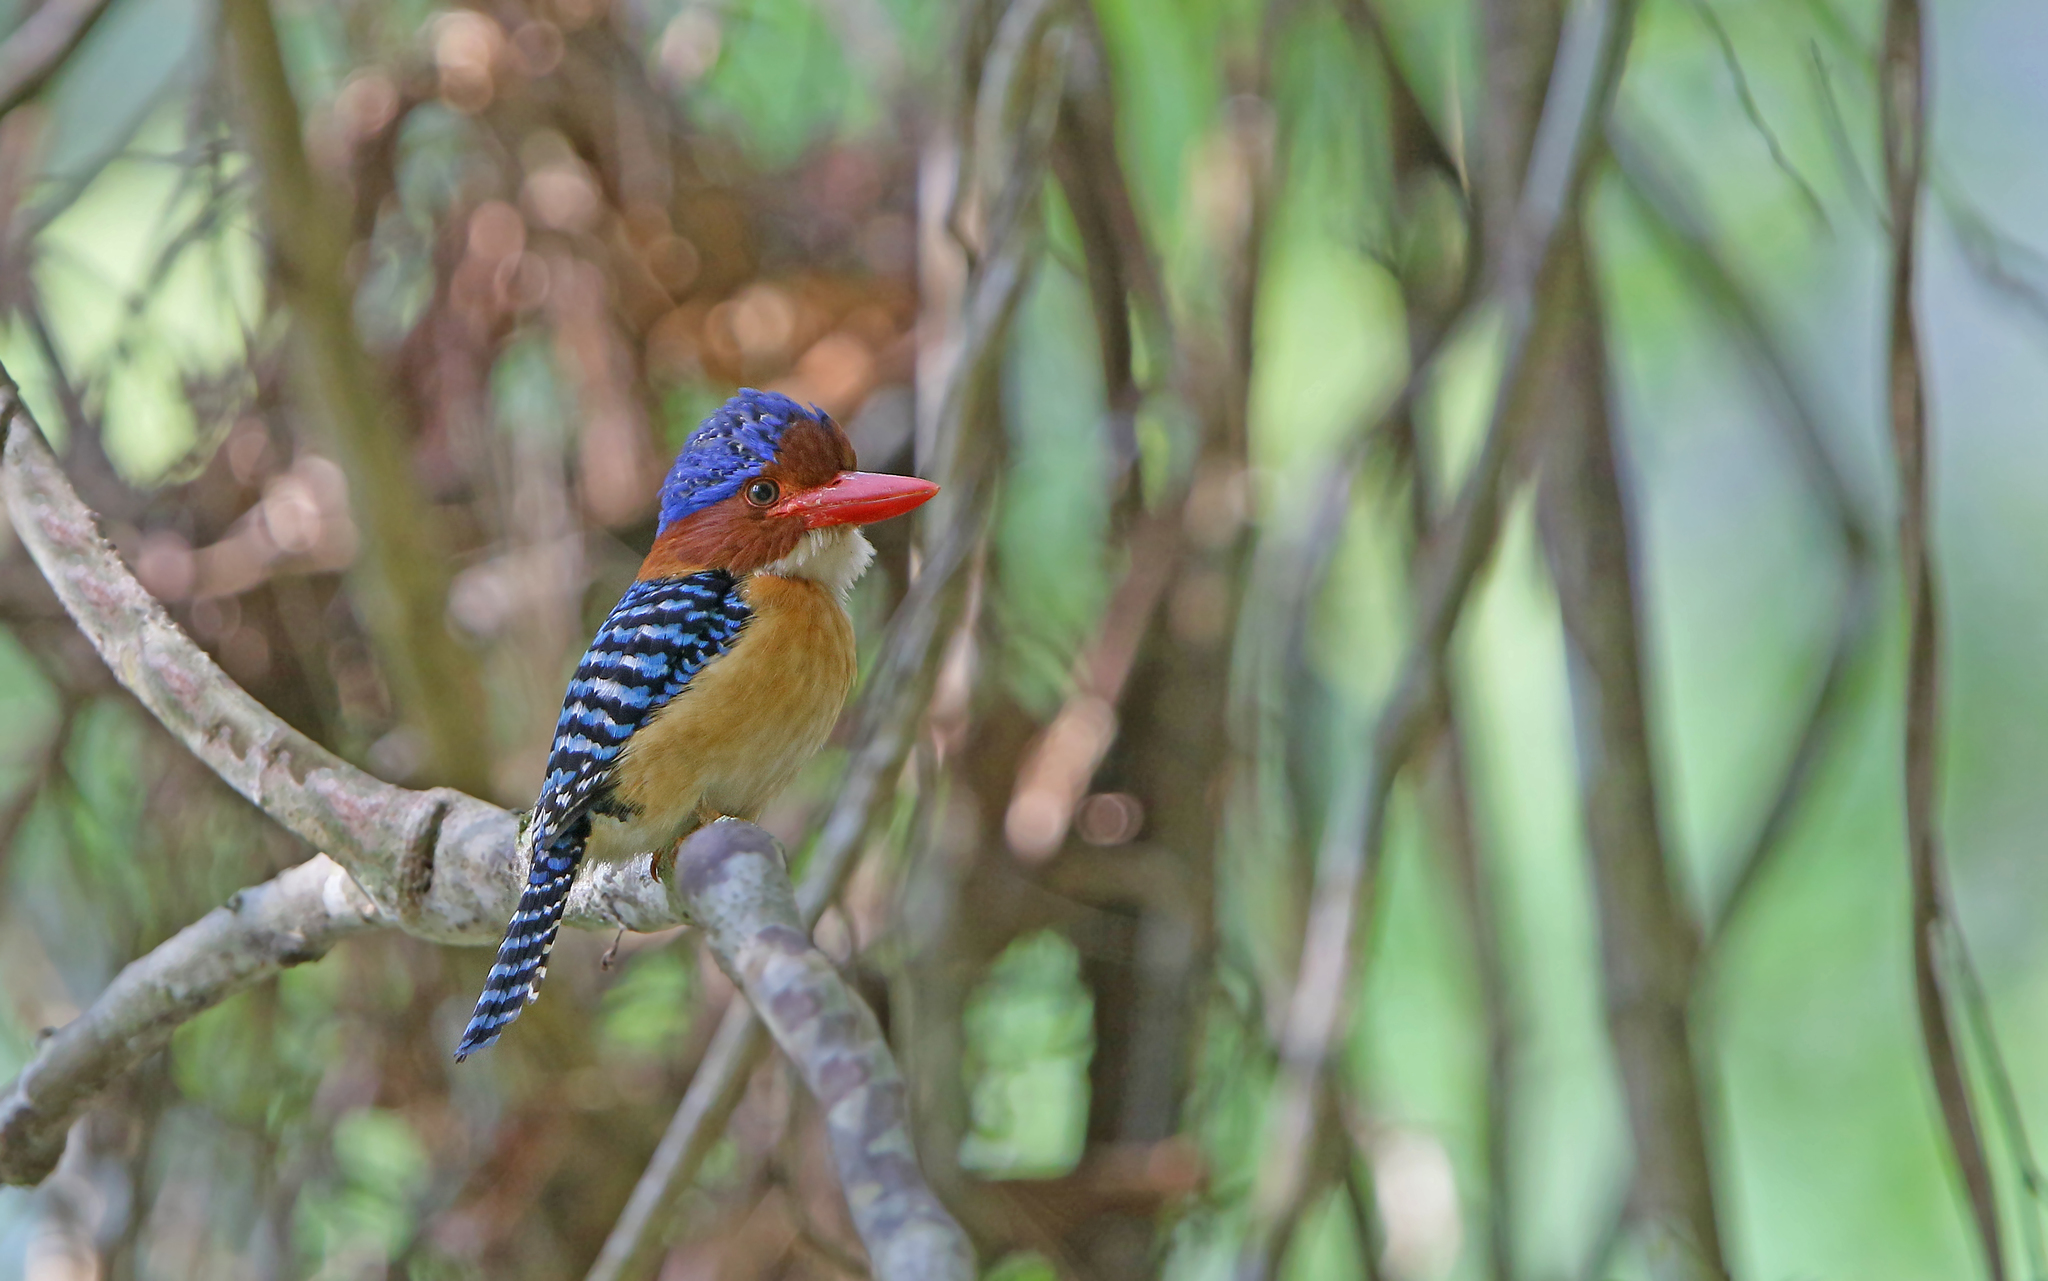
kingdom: Animalia
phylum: Chordata
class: Aves
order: Coraciiformes
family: Alcedinidae
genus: Lacedo
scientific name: Lacedo pulchella
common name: Banded kingfisher
